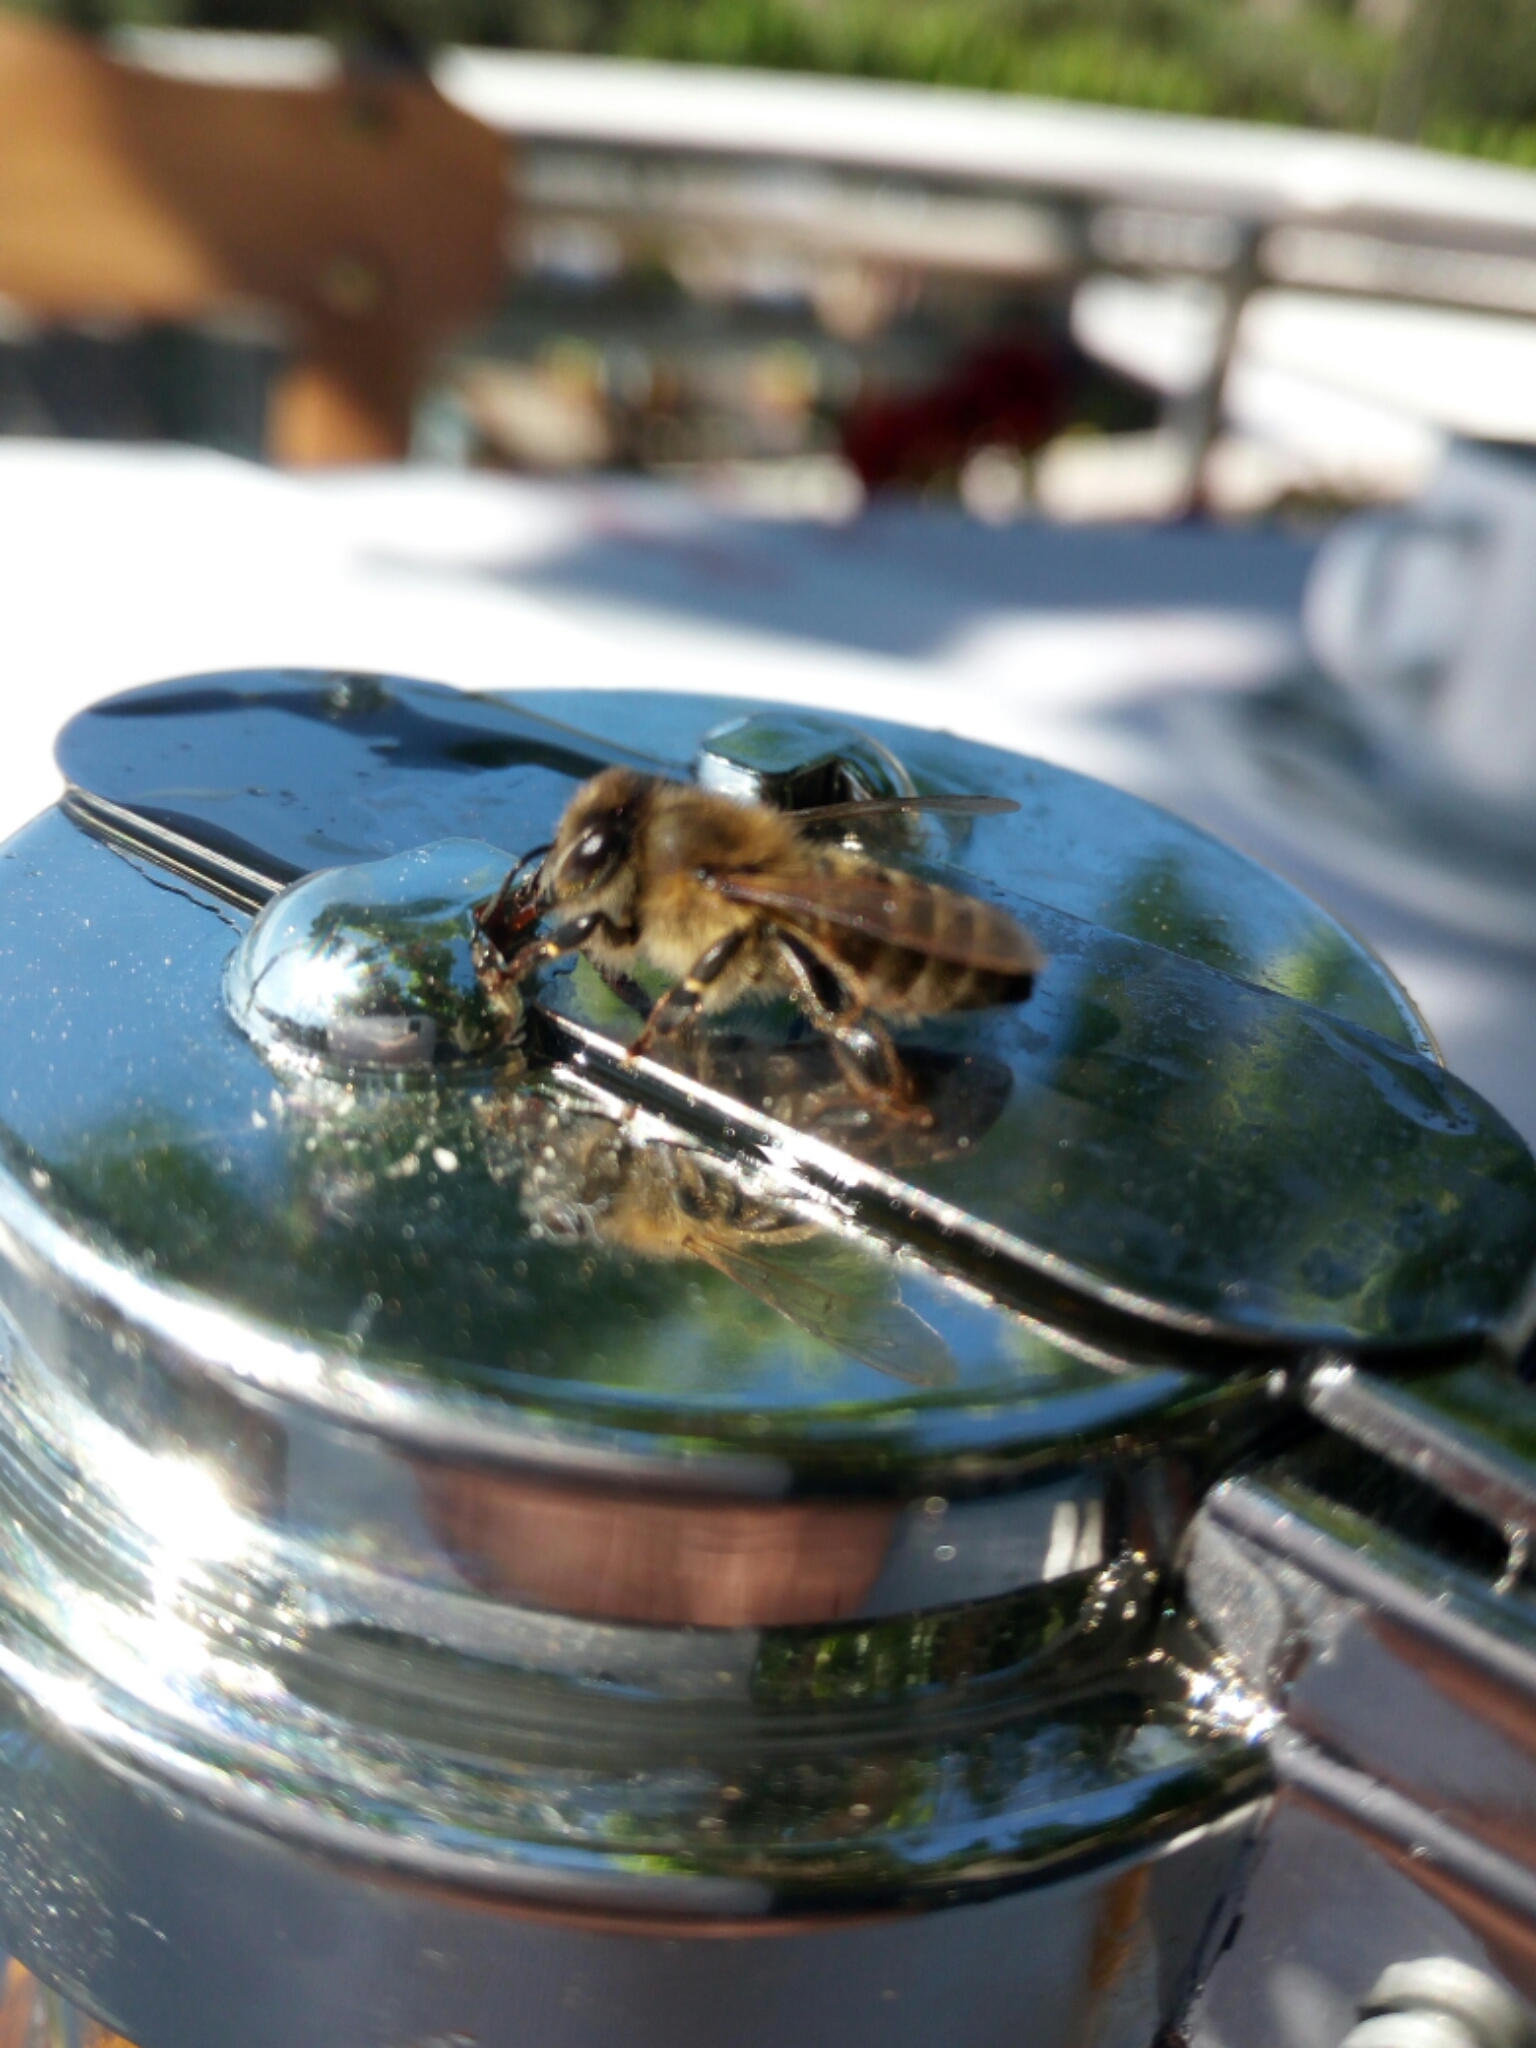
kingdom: Animalia
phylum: Arthropoda
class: Insecta
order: Hymenoptera
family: Apidae
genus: Apis
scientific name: Apis mellifera
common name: Honey bee
